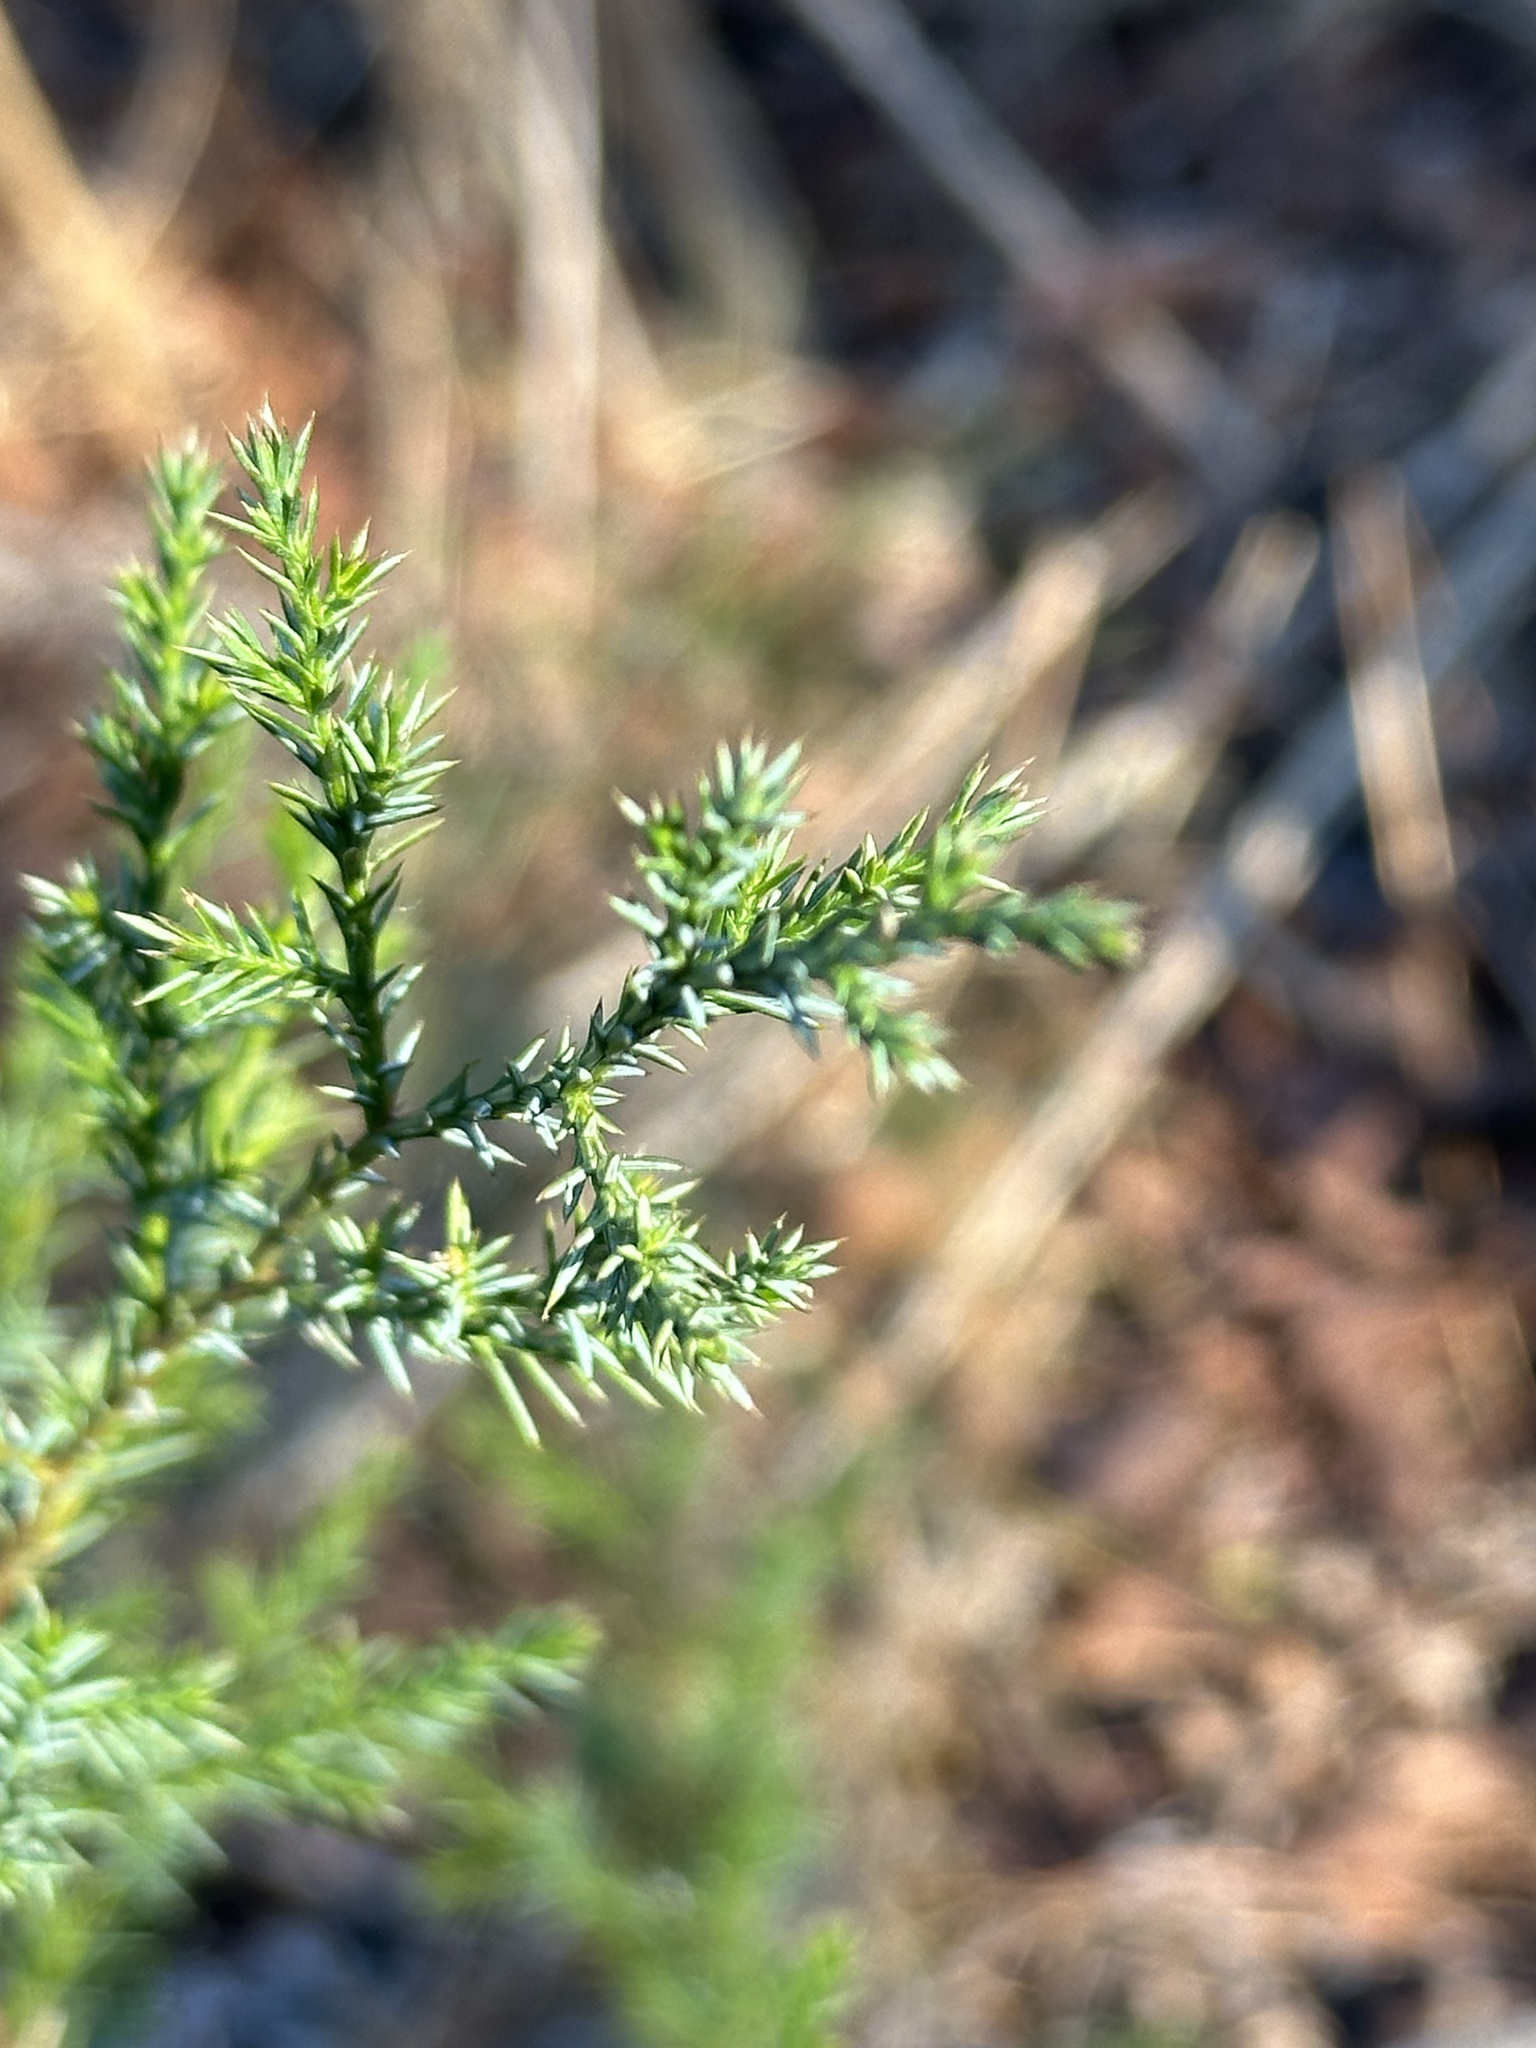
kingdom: Plantae
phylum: Tracheophyta
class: Pinopsida
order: Pinales
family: Cupressaceae
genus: Juniperus
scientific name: Juniperus virginiana
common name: Red juniper
